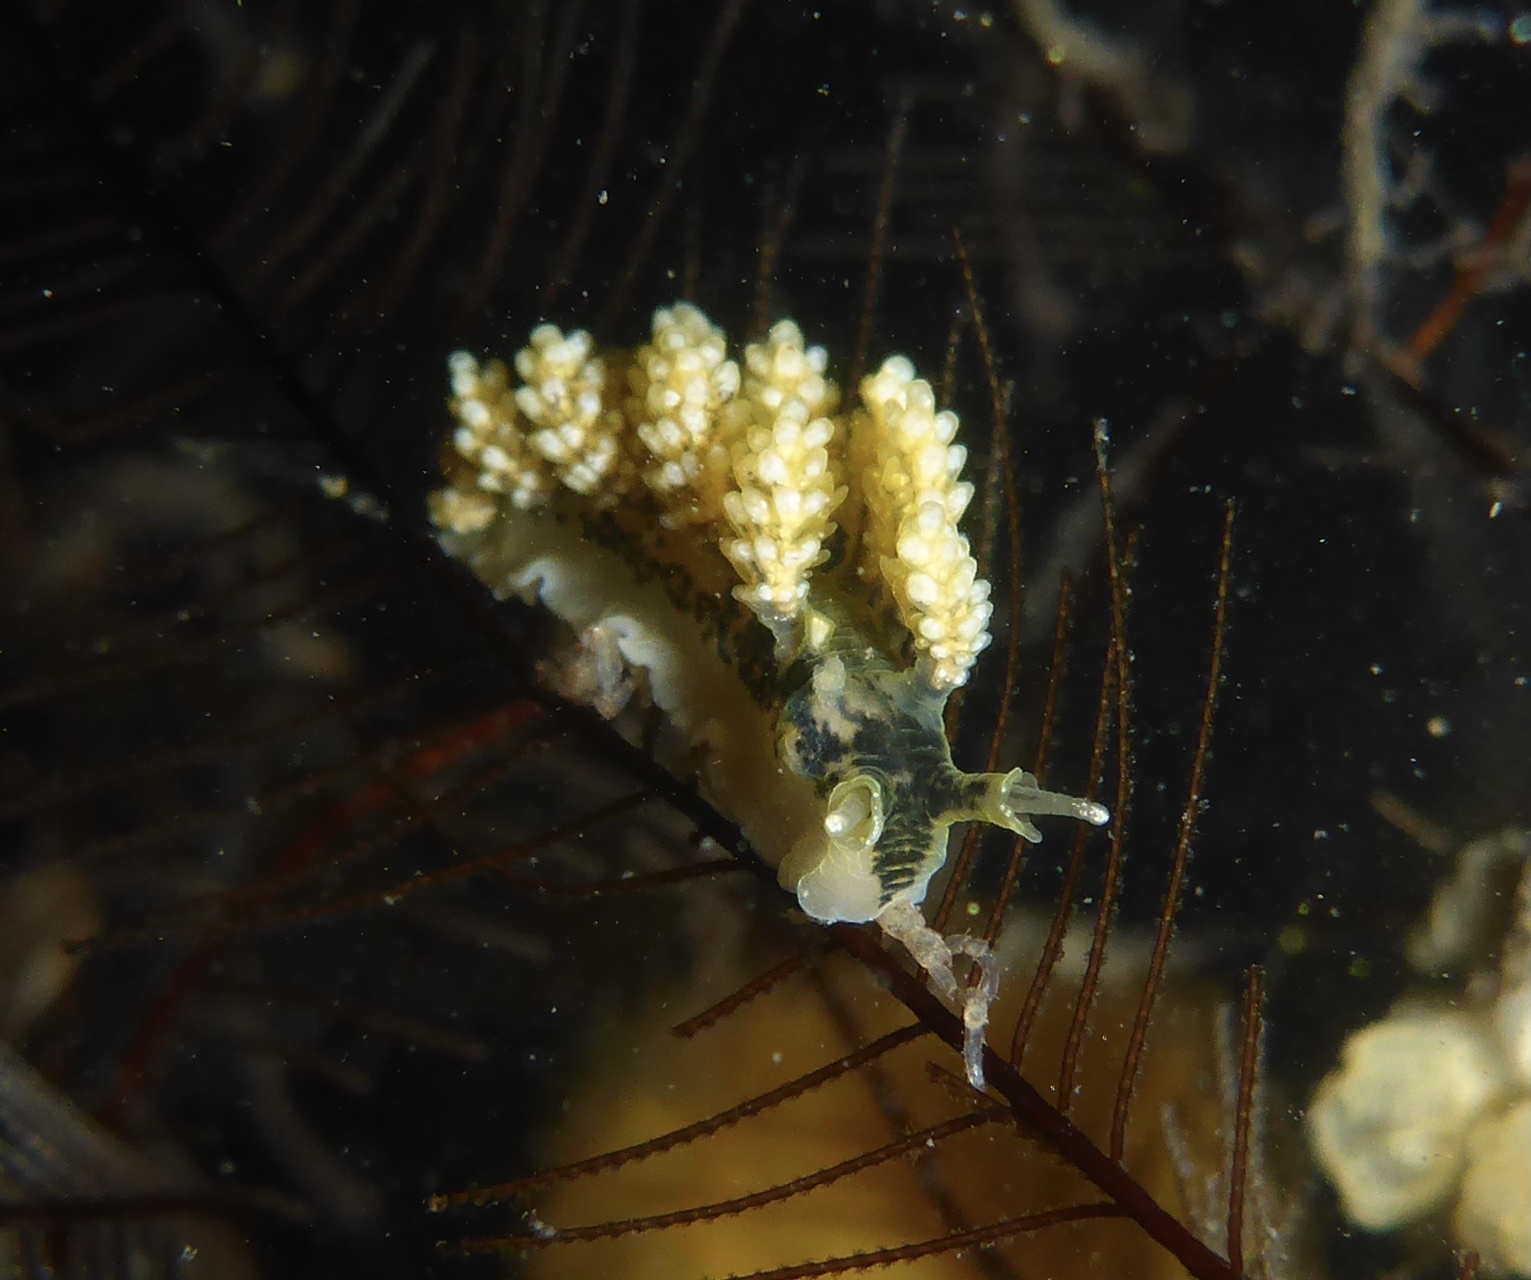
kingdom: Animalia
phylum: Mollusca
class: Gastropoda
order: Nudibranchia
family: Dotidae
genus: Doto
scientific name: Doto kya
